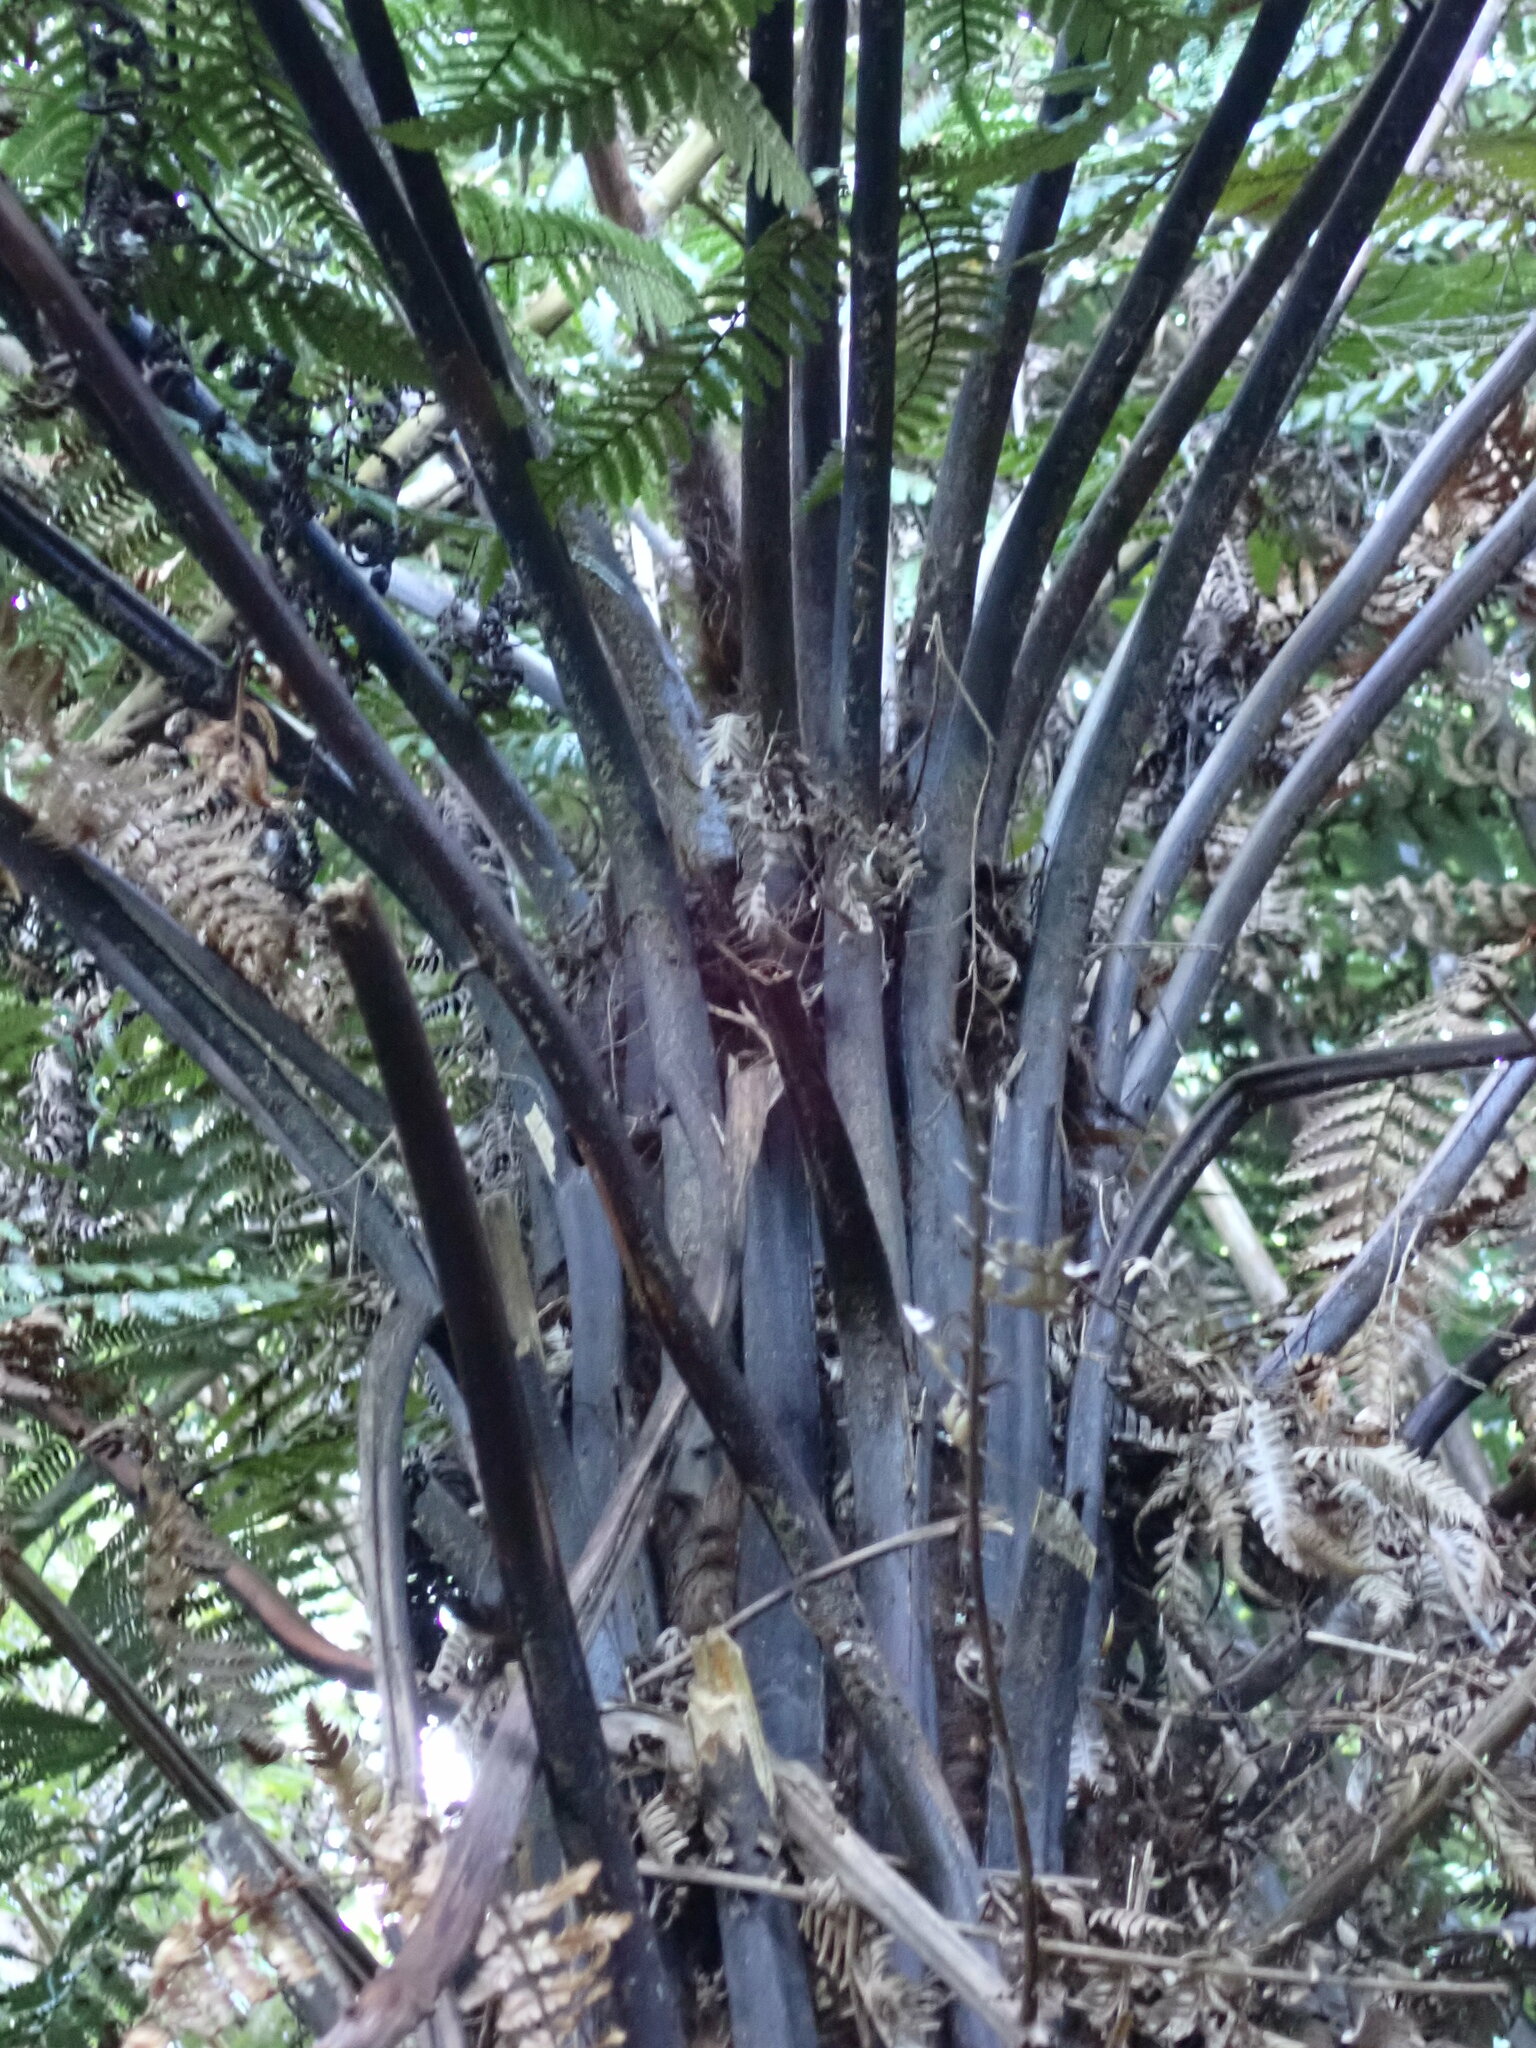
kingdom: Plantae
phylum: Tracheophyta
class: Polypodiopsida
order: Cyatheales
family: Dicksoniaceae
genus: Dicksonia
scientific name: Dicksonia squarrosa
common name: Hard treefern
